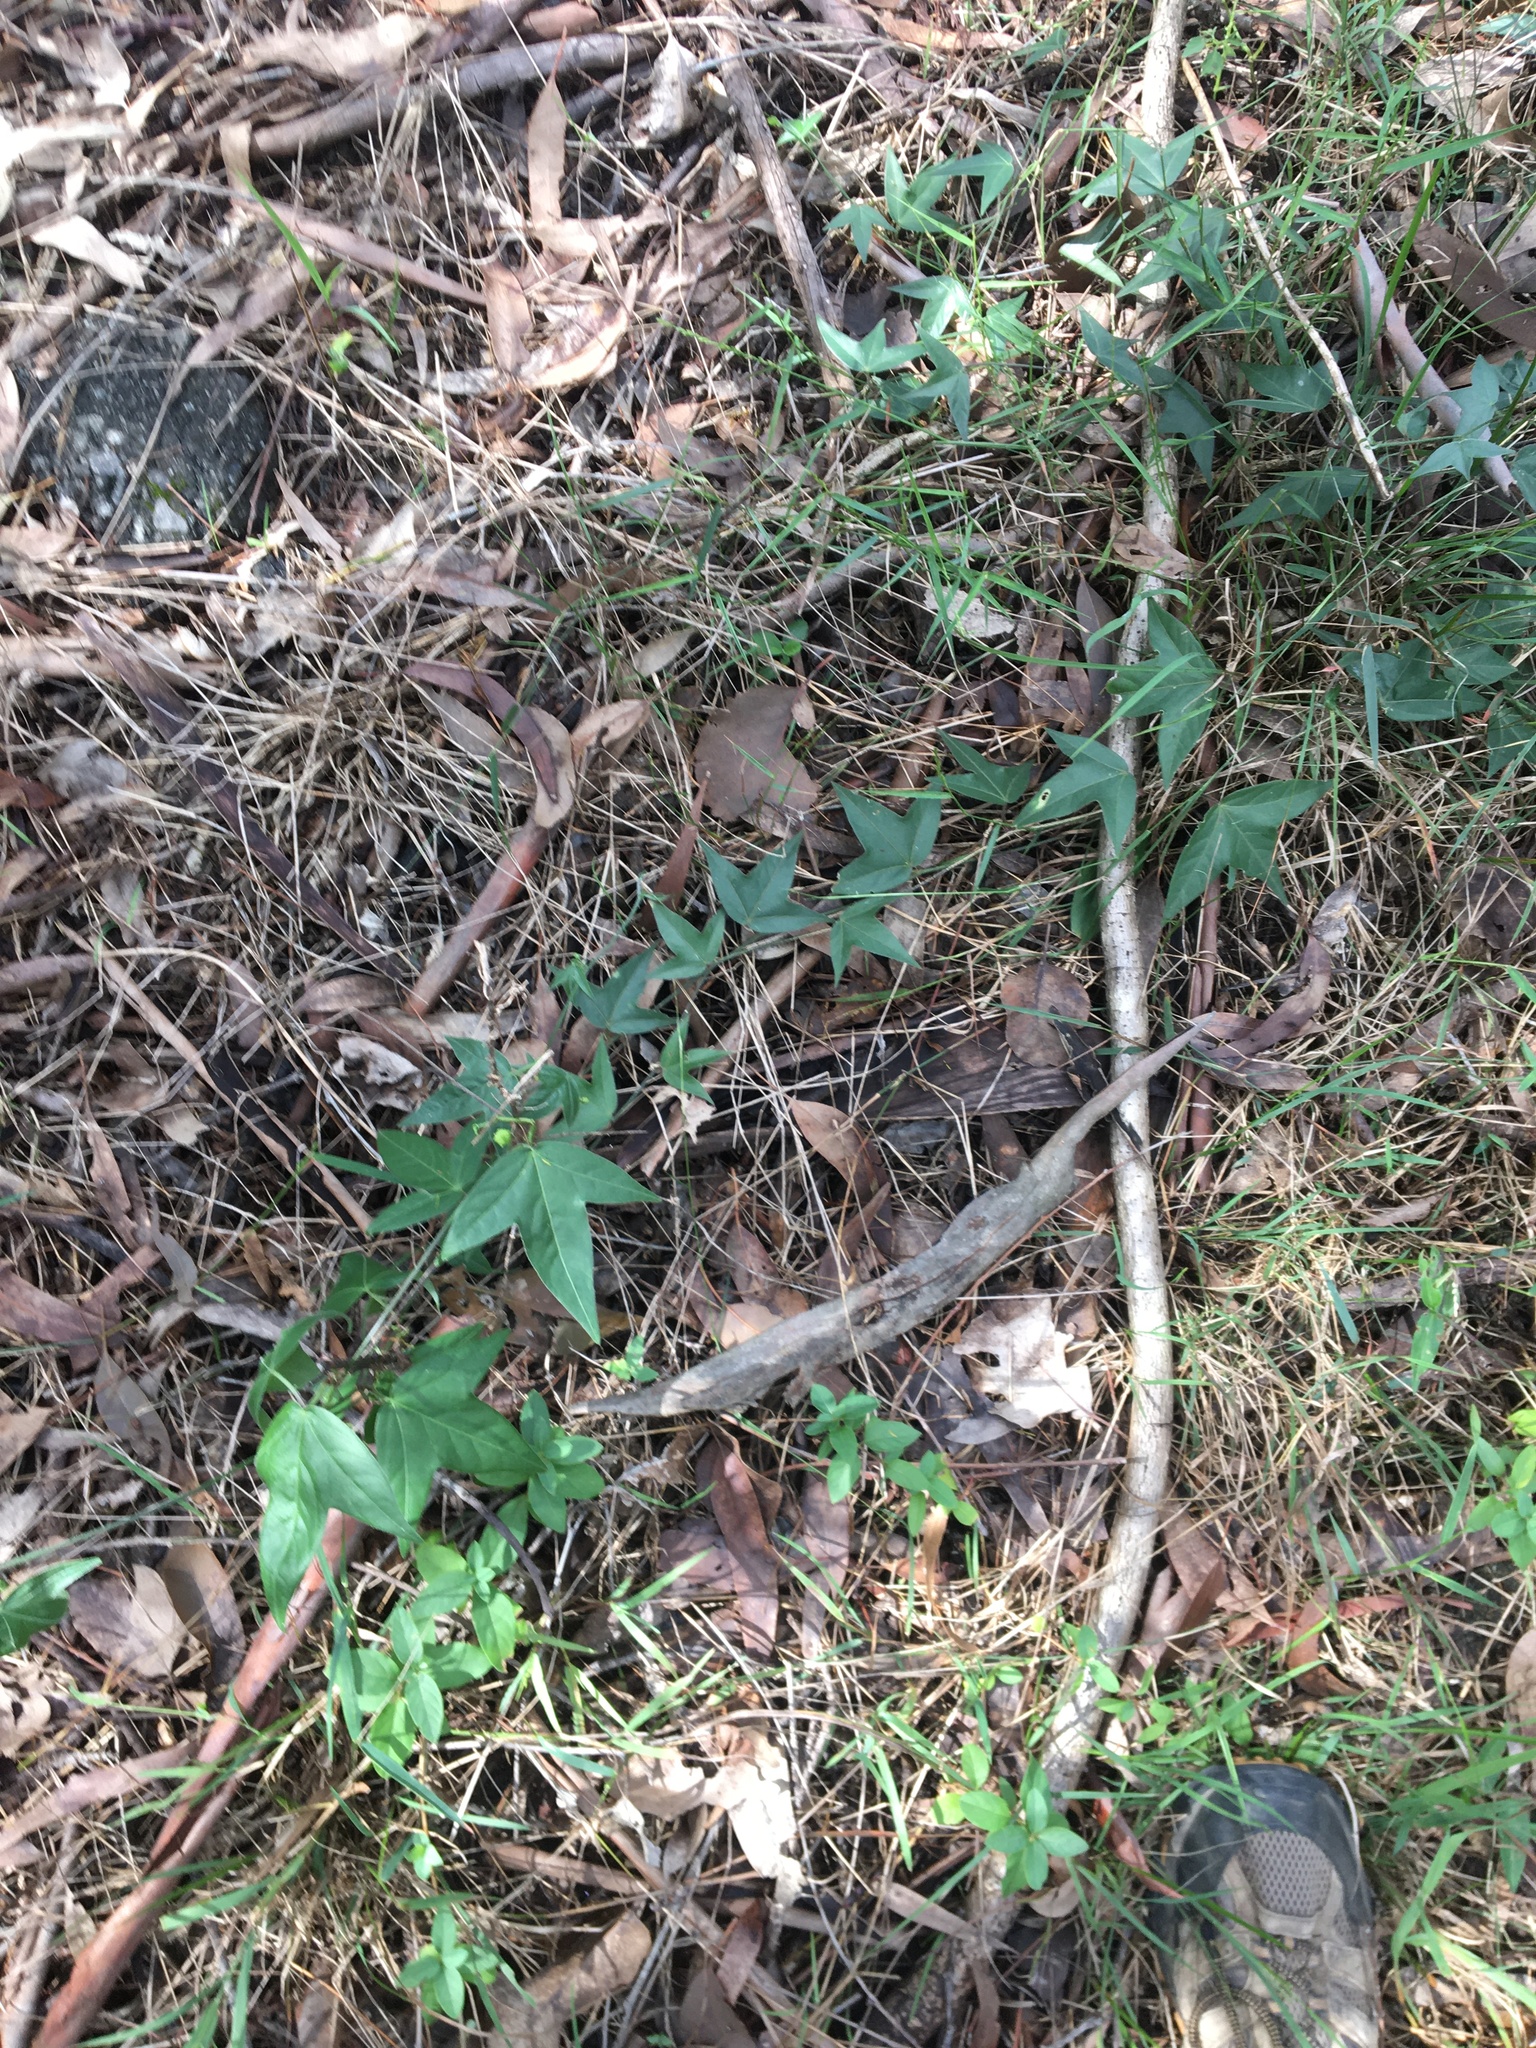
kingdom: Plantae
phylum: Tracheophyta
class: Magnoliopsida
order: Malpighiales
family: Passifloraceae
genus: Passiflora
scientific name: Passiflora suberosa
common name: Wild passionfruit
